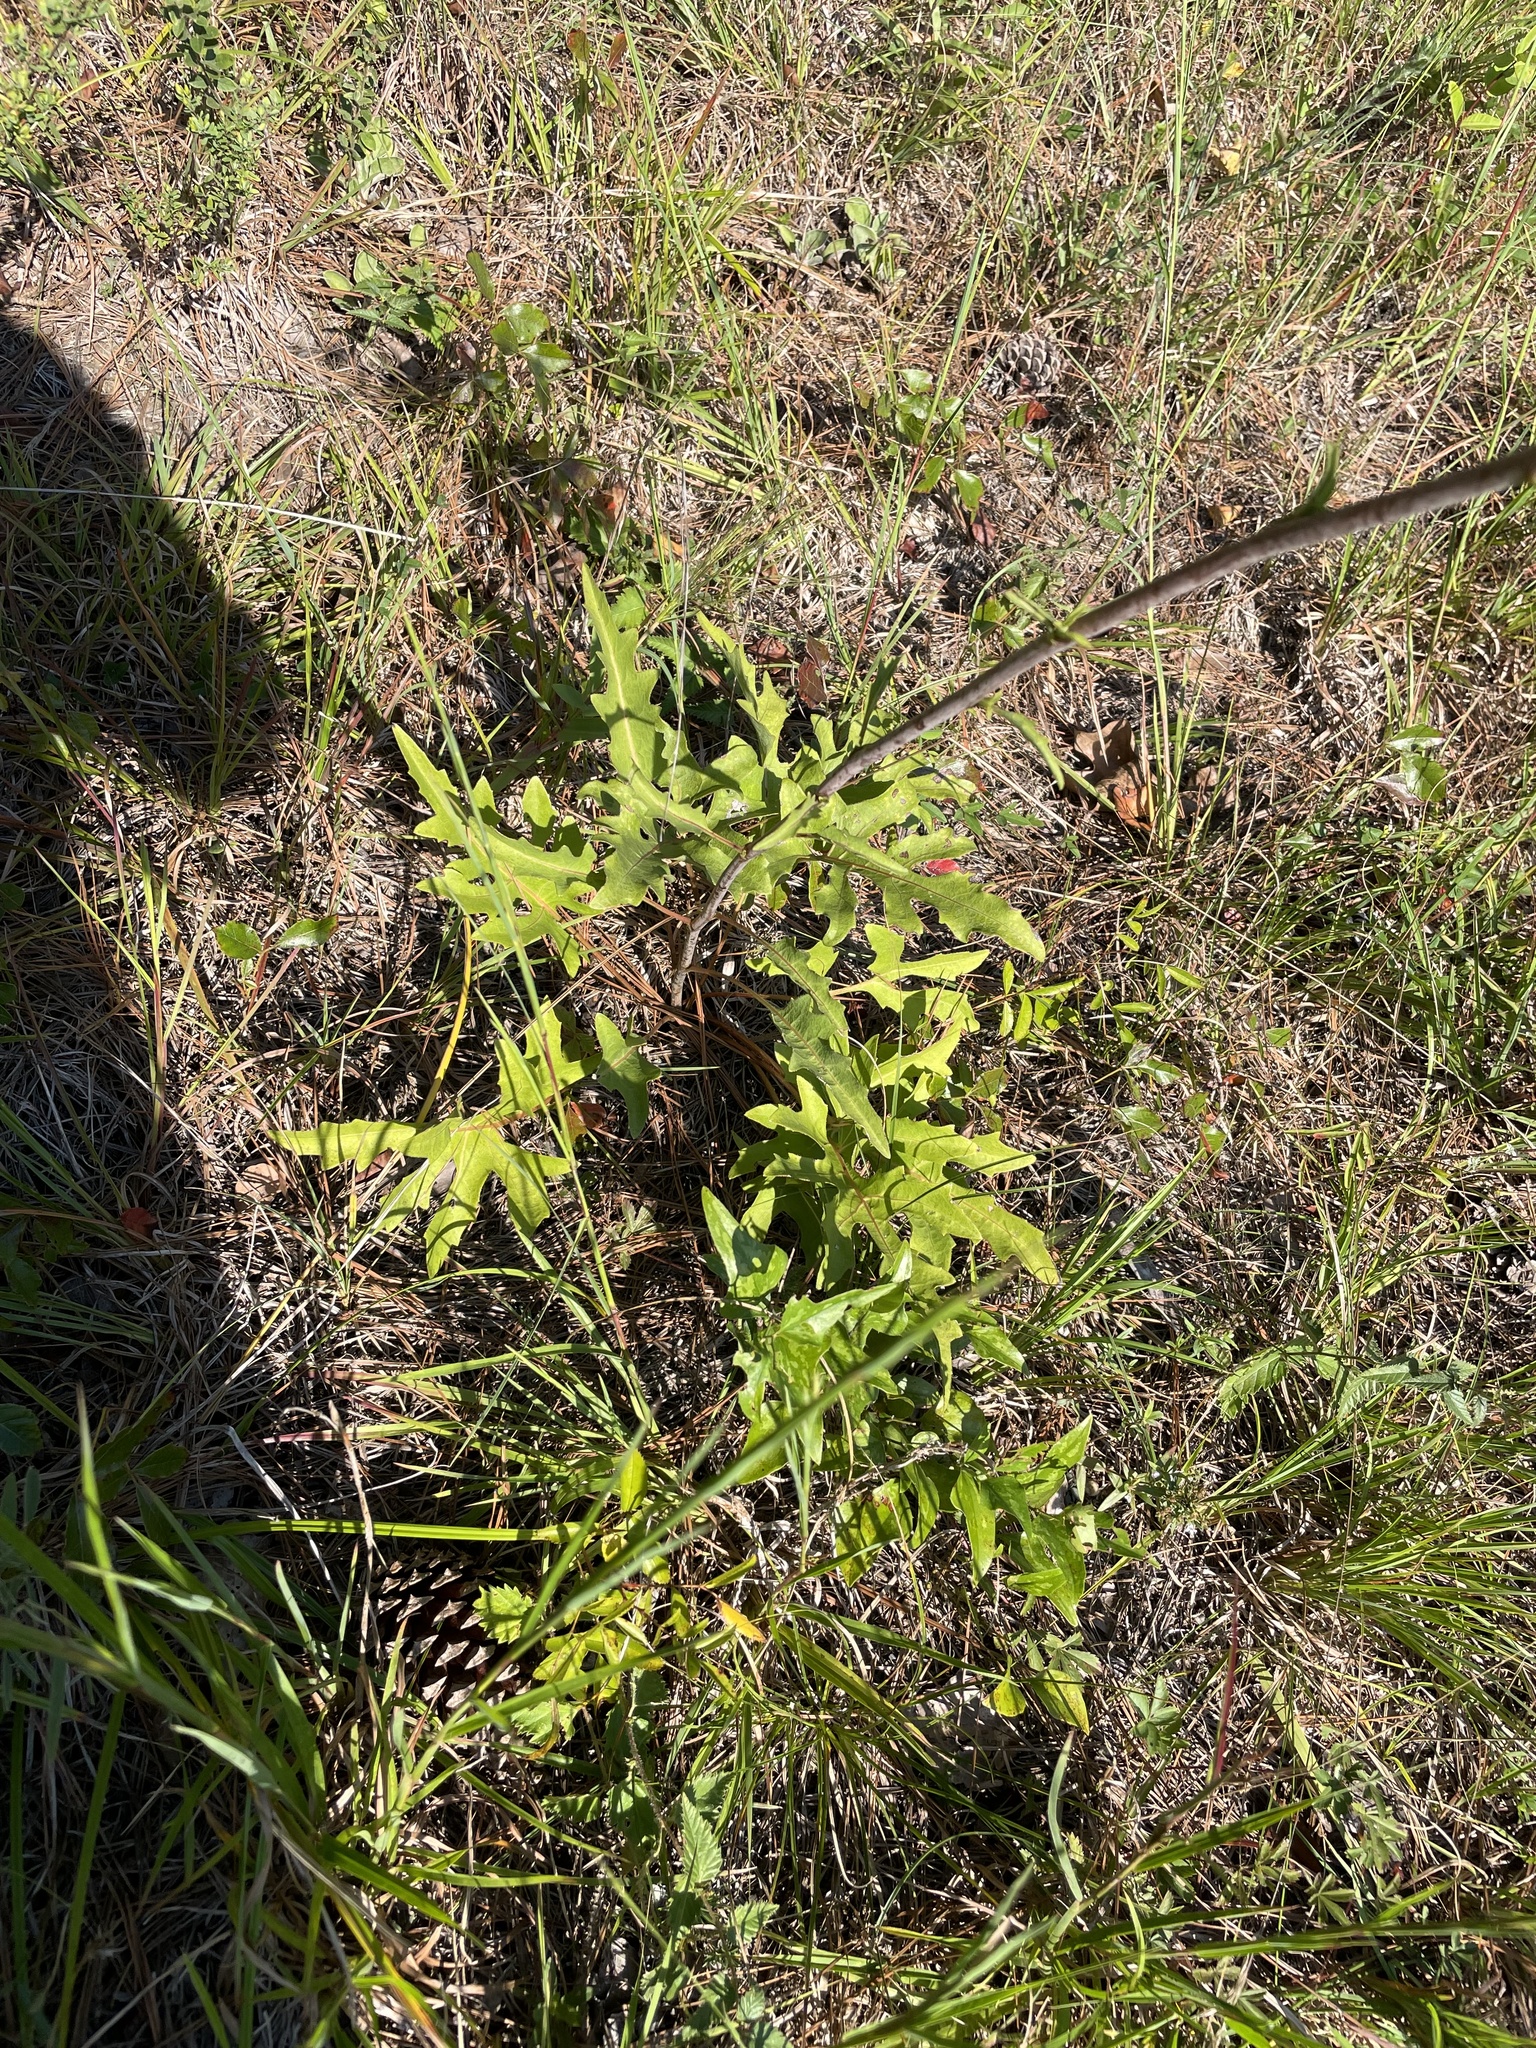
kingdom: Plantae
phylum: Tracheophyta
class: Magnoliopsida
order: Asterales
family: Asteraceae
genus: Silphium
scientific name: Silphium compositum
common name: Lesser basal-leaf rosinweed
